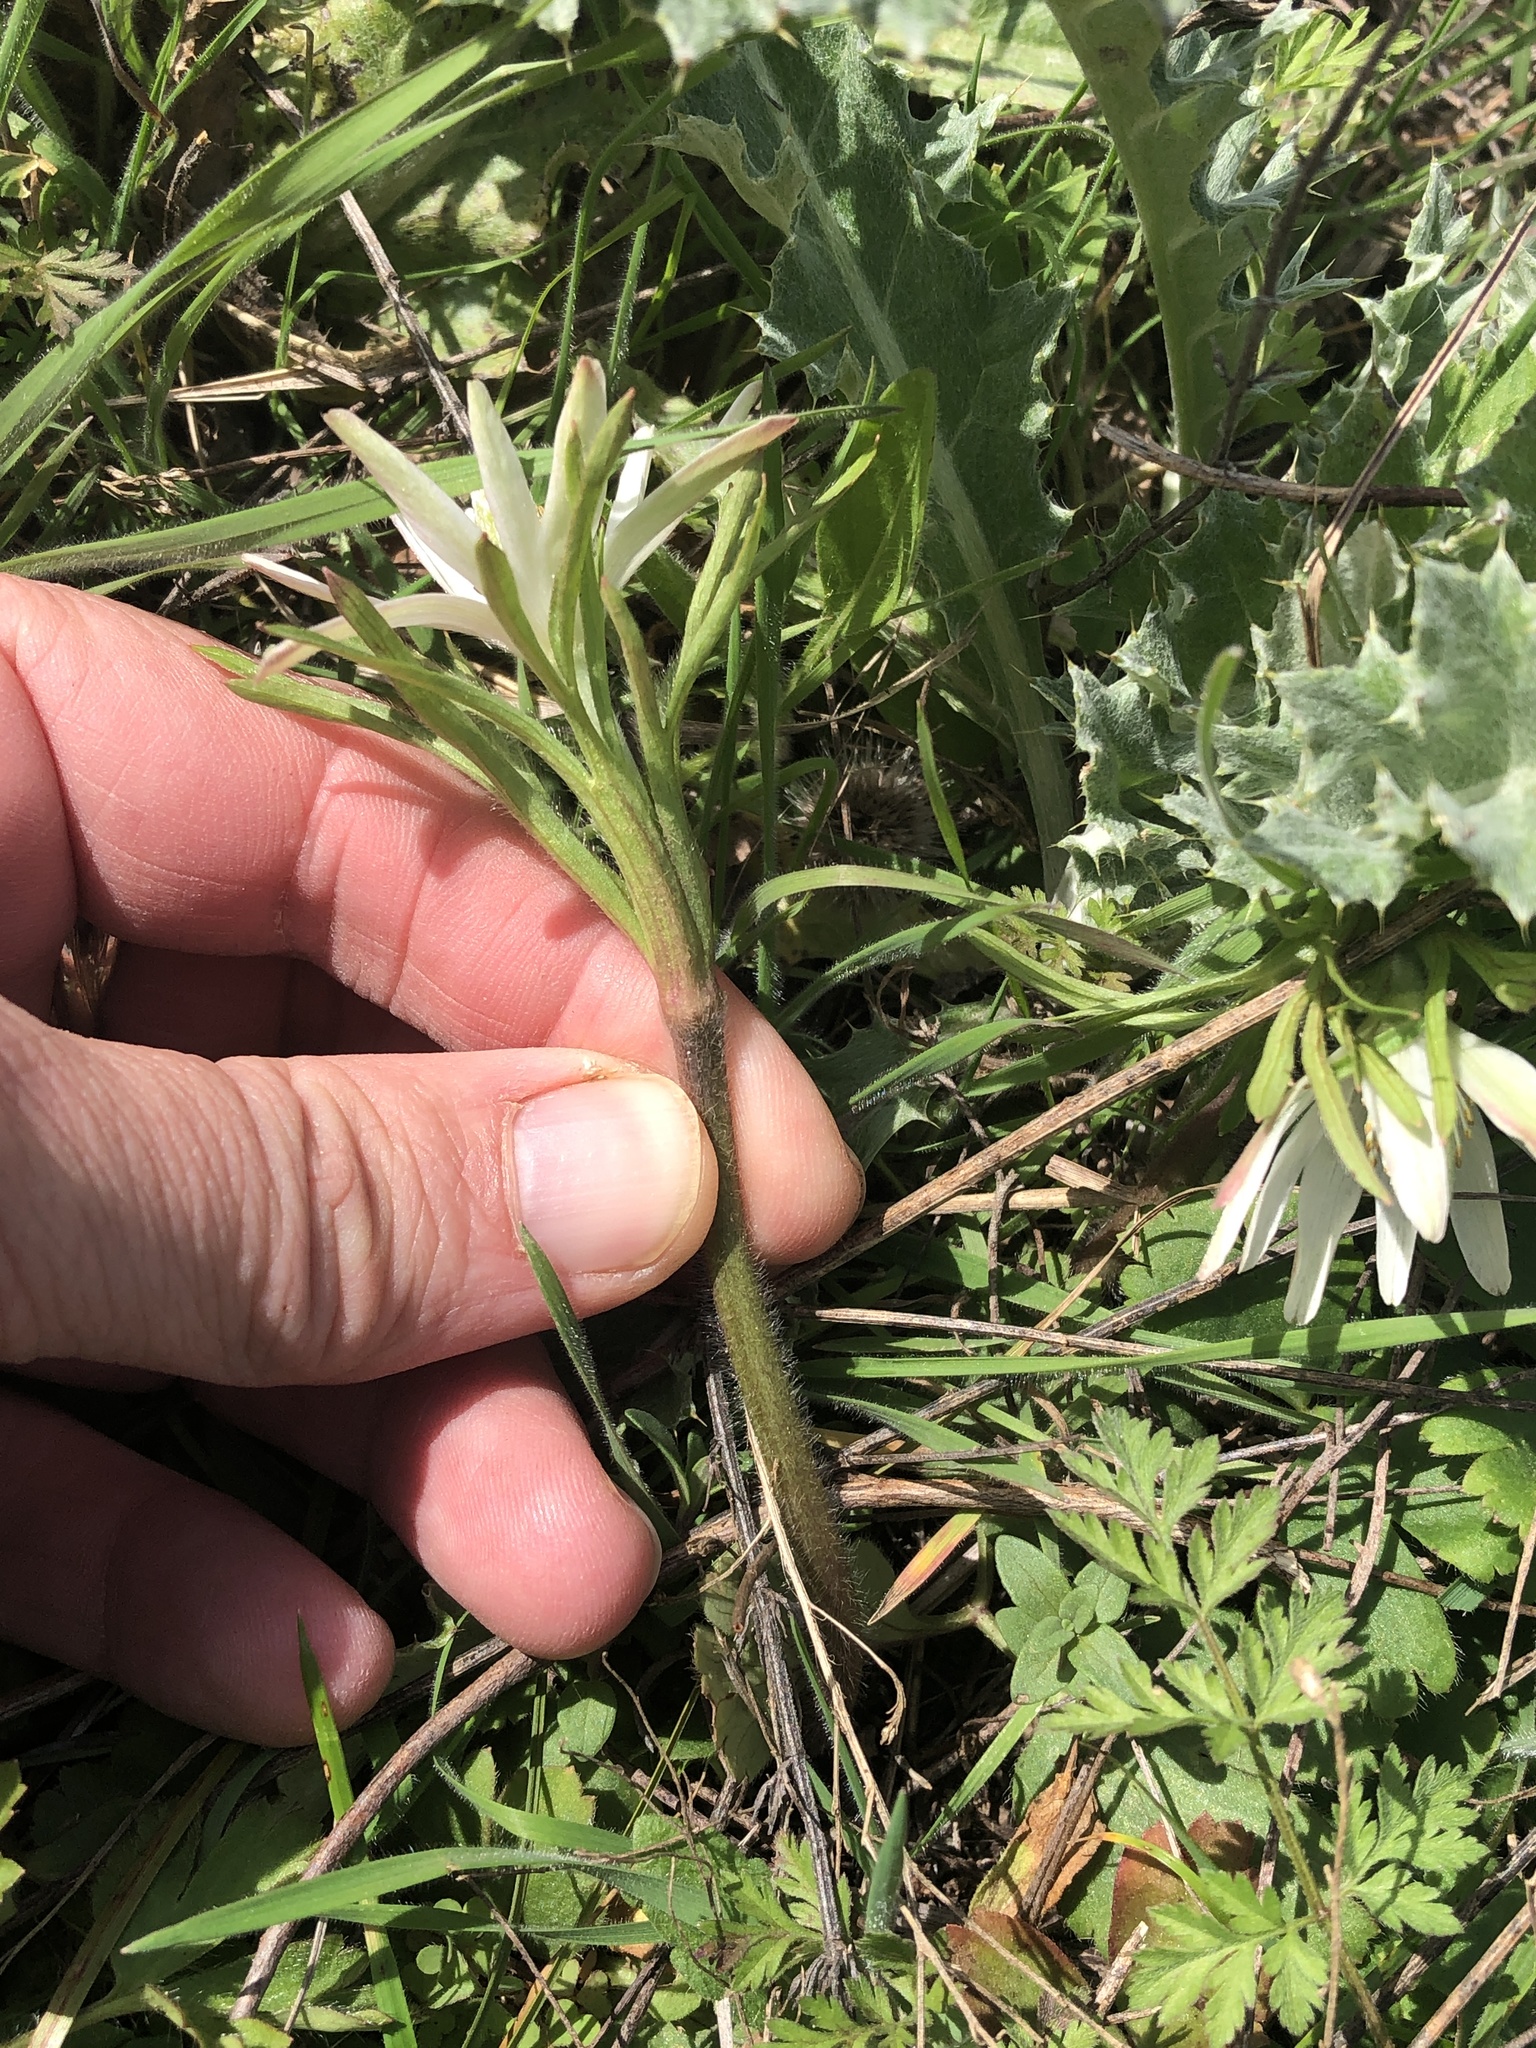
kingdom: Plantae
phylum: Tracheophyta
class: Magnoliopsida
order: Ranunculales
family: Ranunculaceae
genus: Anemone
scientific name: Anemone berlandieri
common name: Ten-petal anemone
